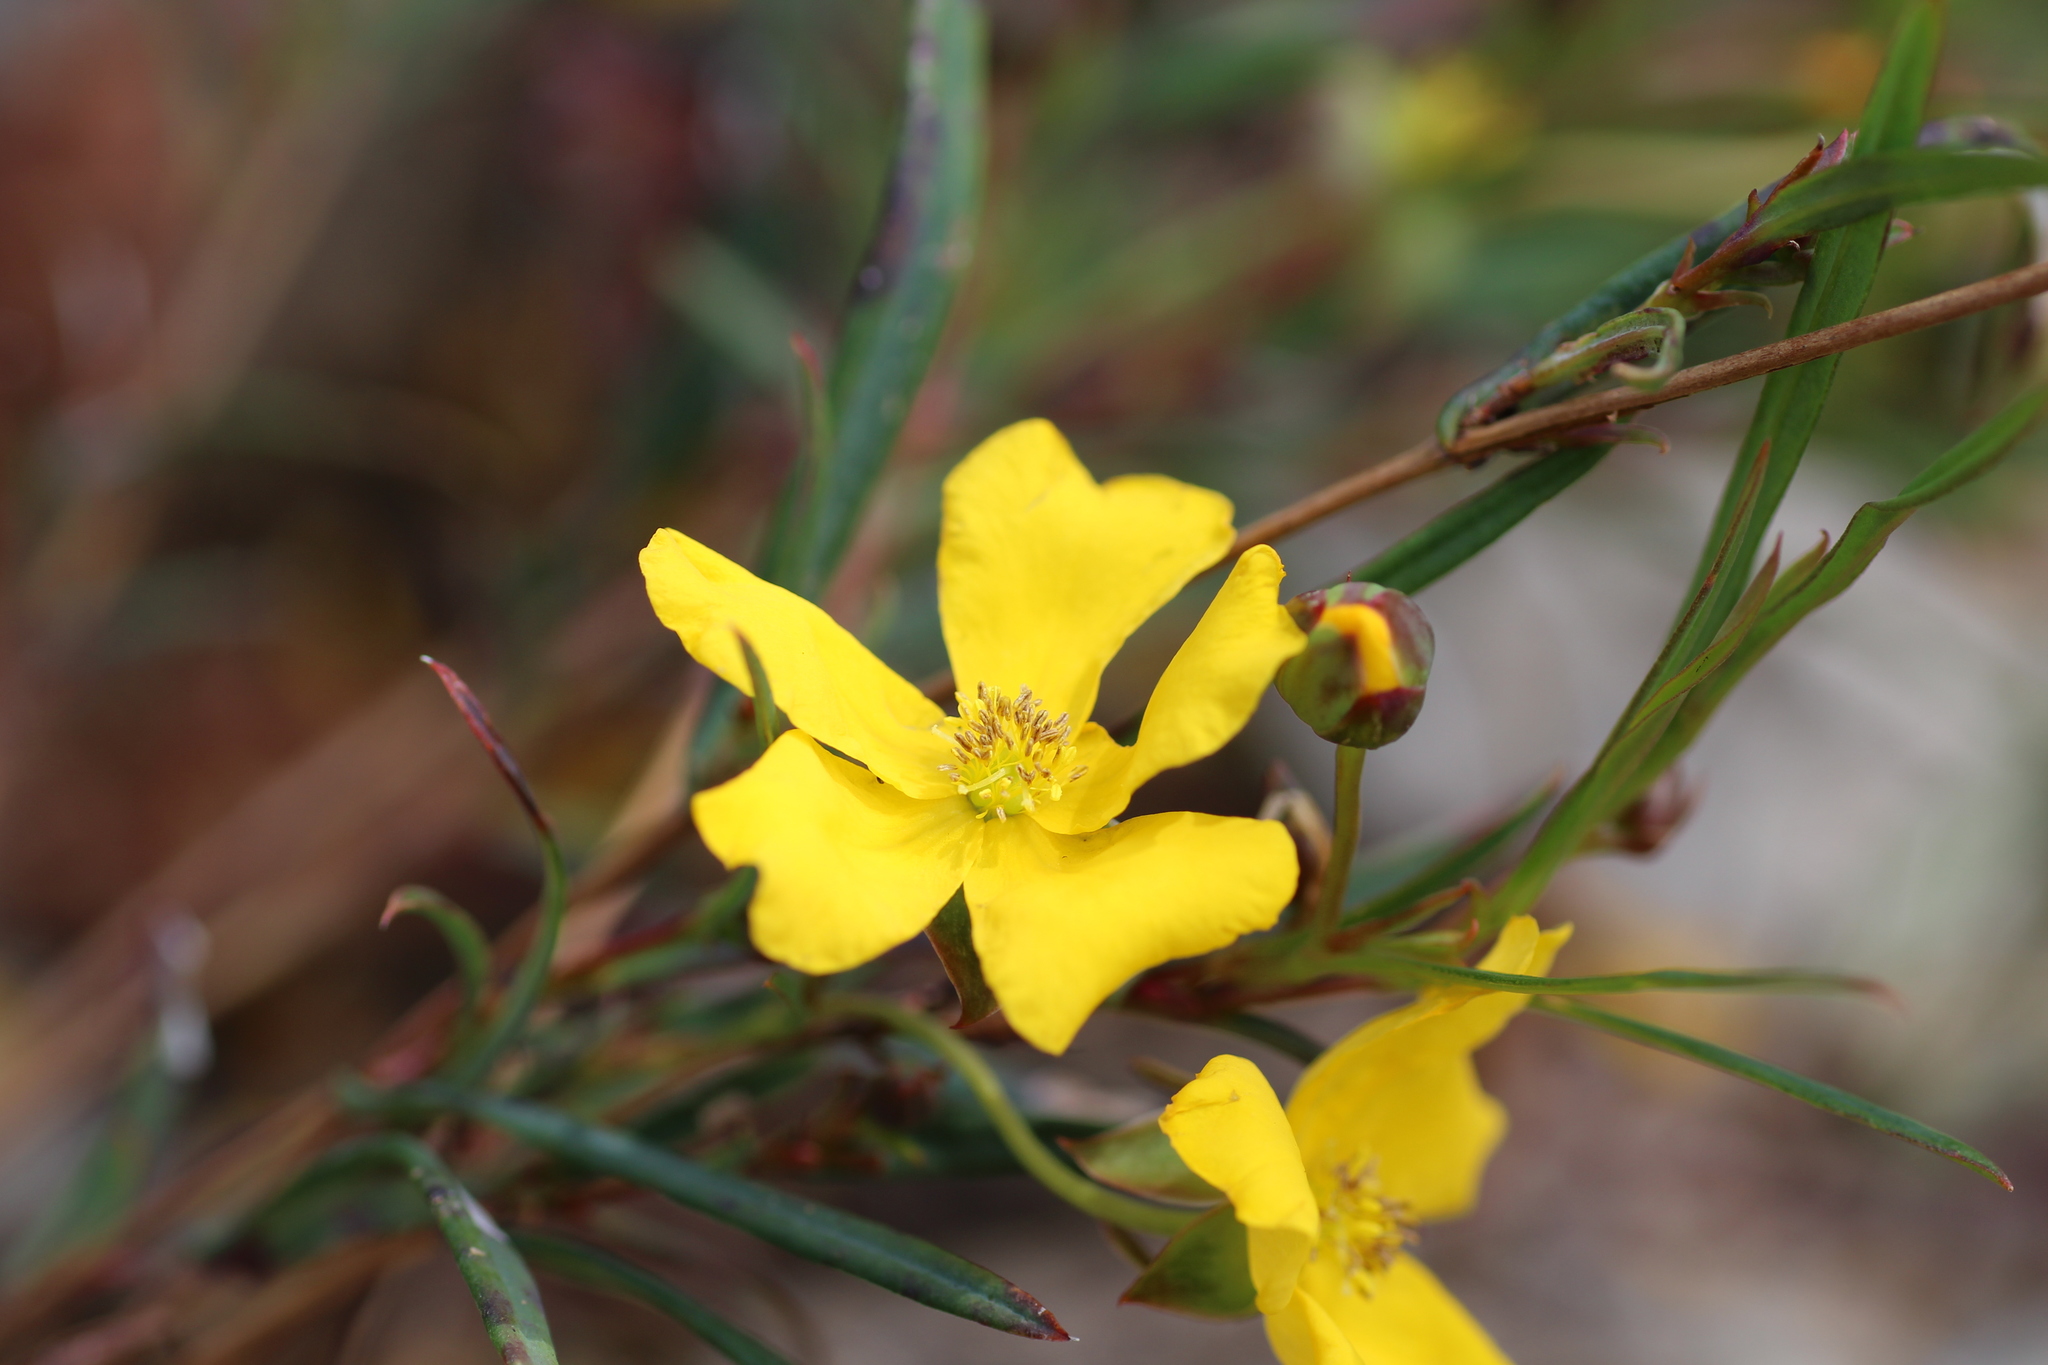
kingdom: Plantae
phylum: Tracheophyta
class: Magnoliopsida
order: Dilleniales
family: Dilleniaceae
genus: Hibbertia
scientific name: Hibbertia cunninghamii
